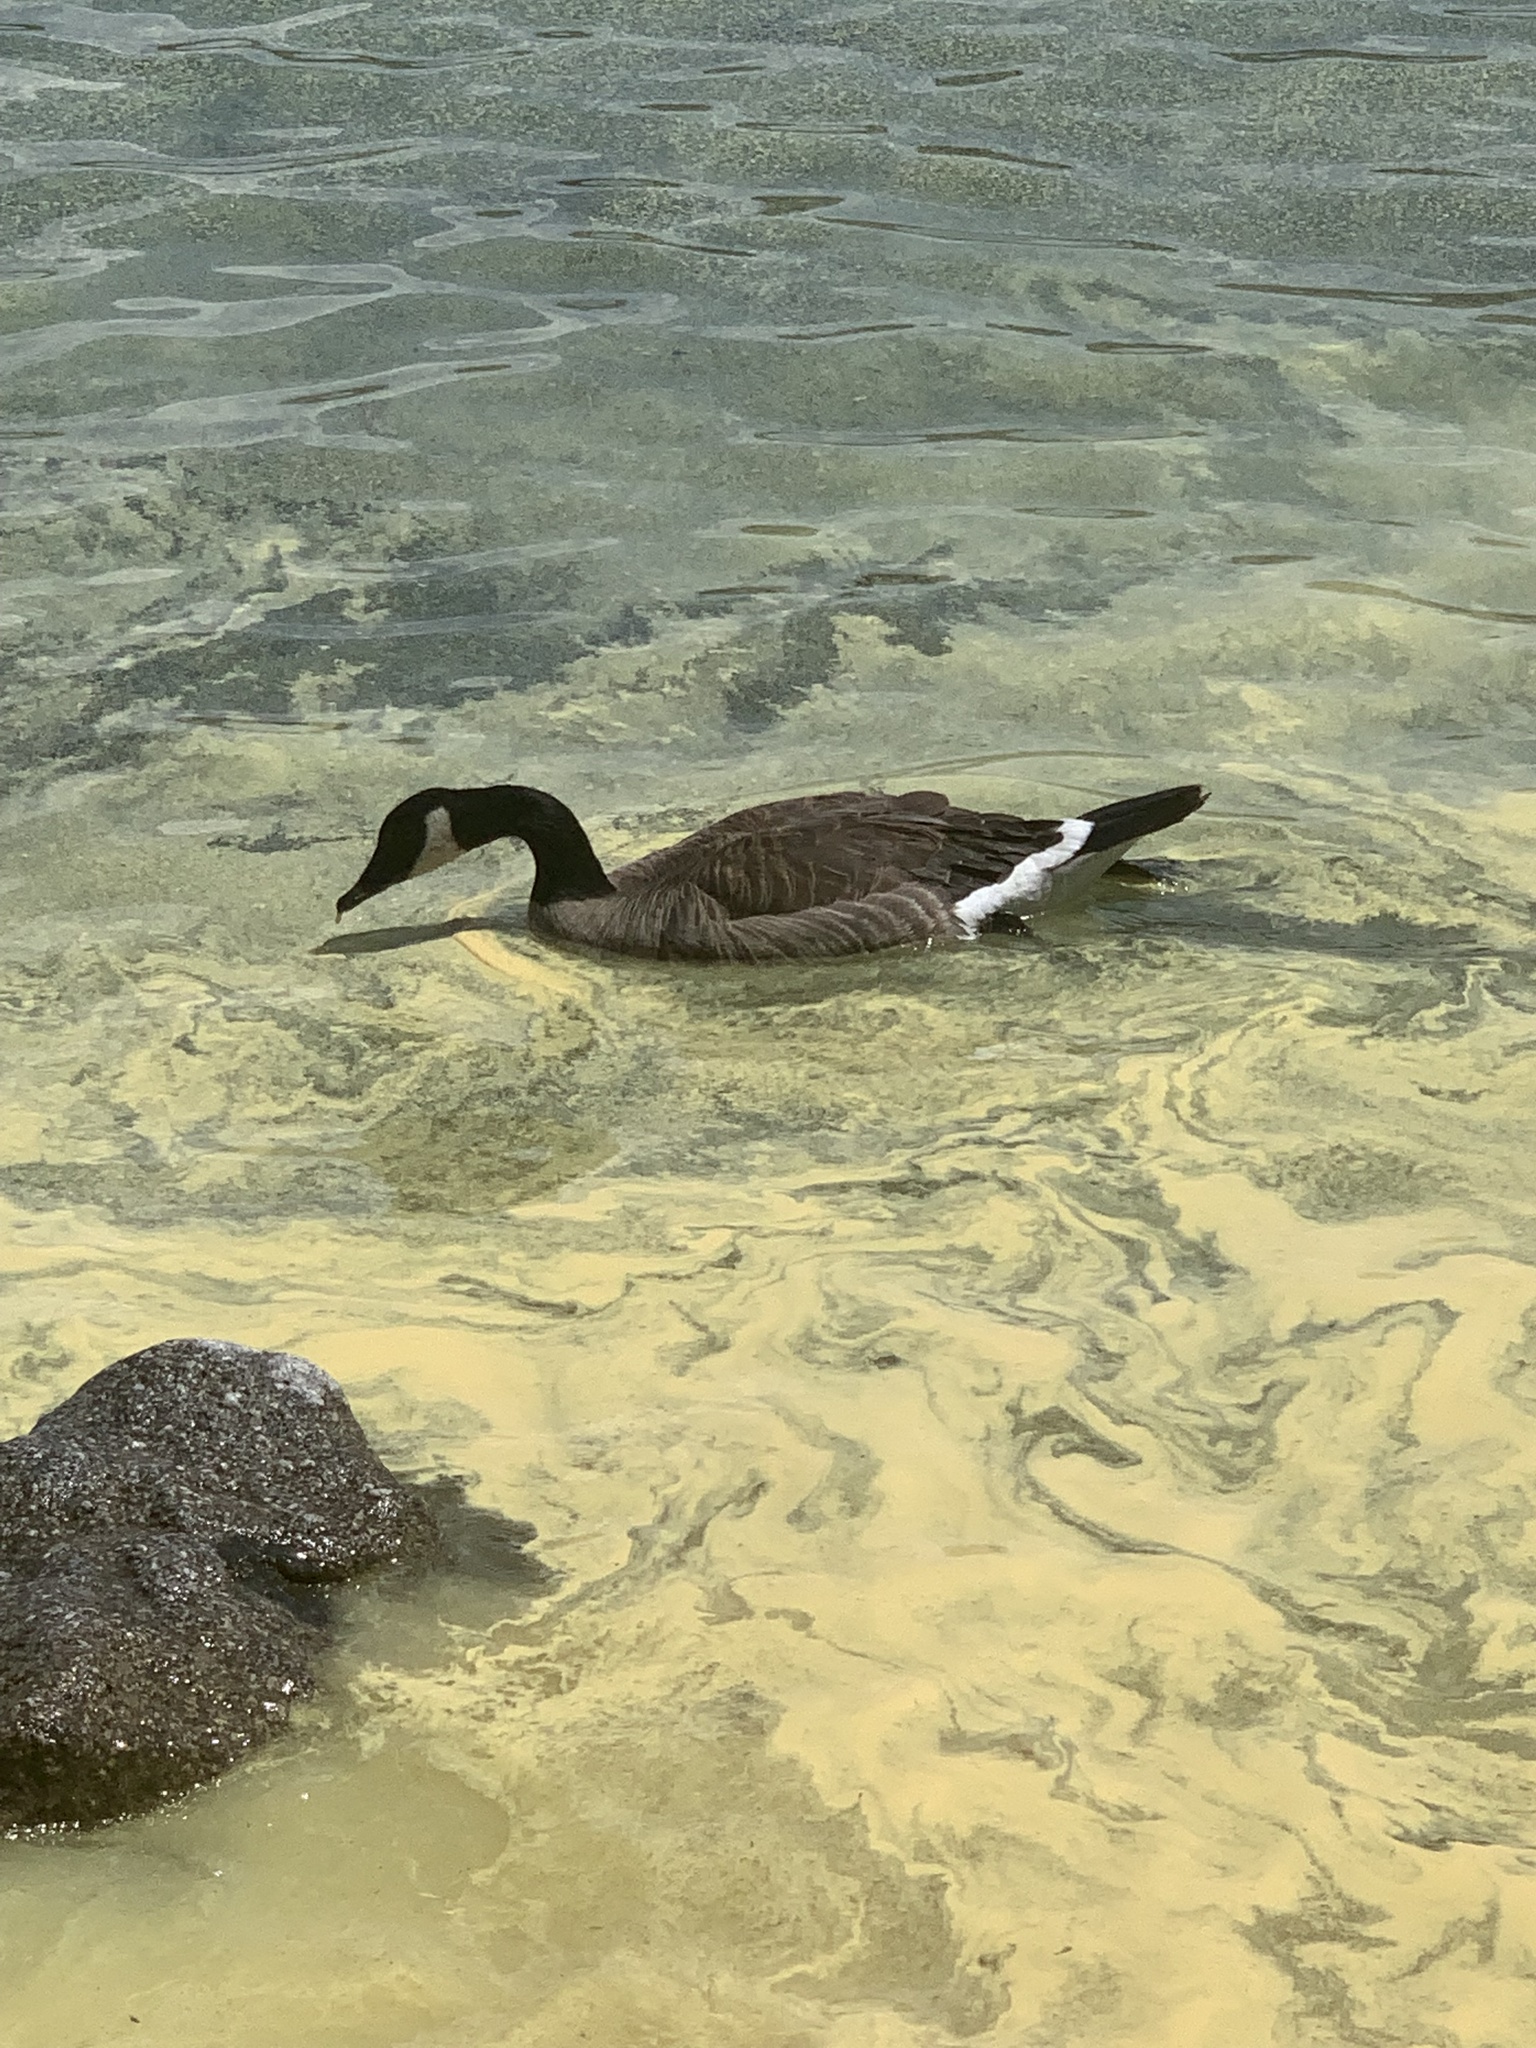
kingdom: Animalia
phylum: Chordata
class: Aves
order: Anseriformes
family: Anatidae
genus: Branta
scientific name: Branta canadensis
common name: Canada goose
